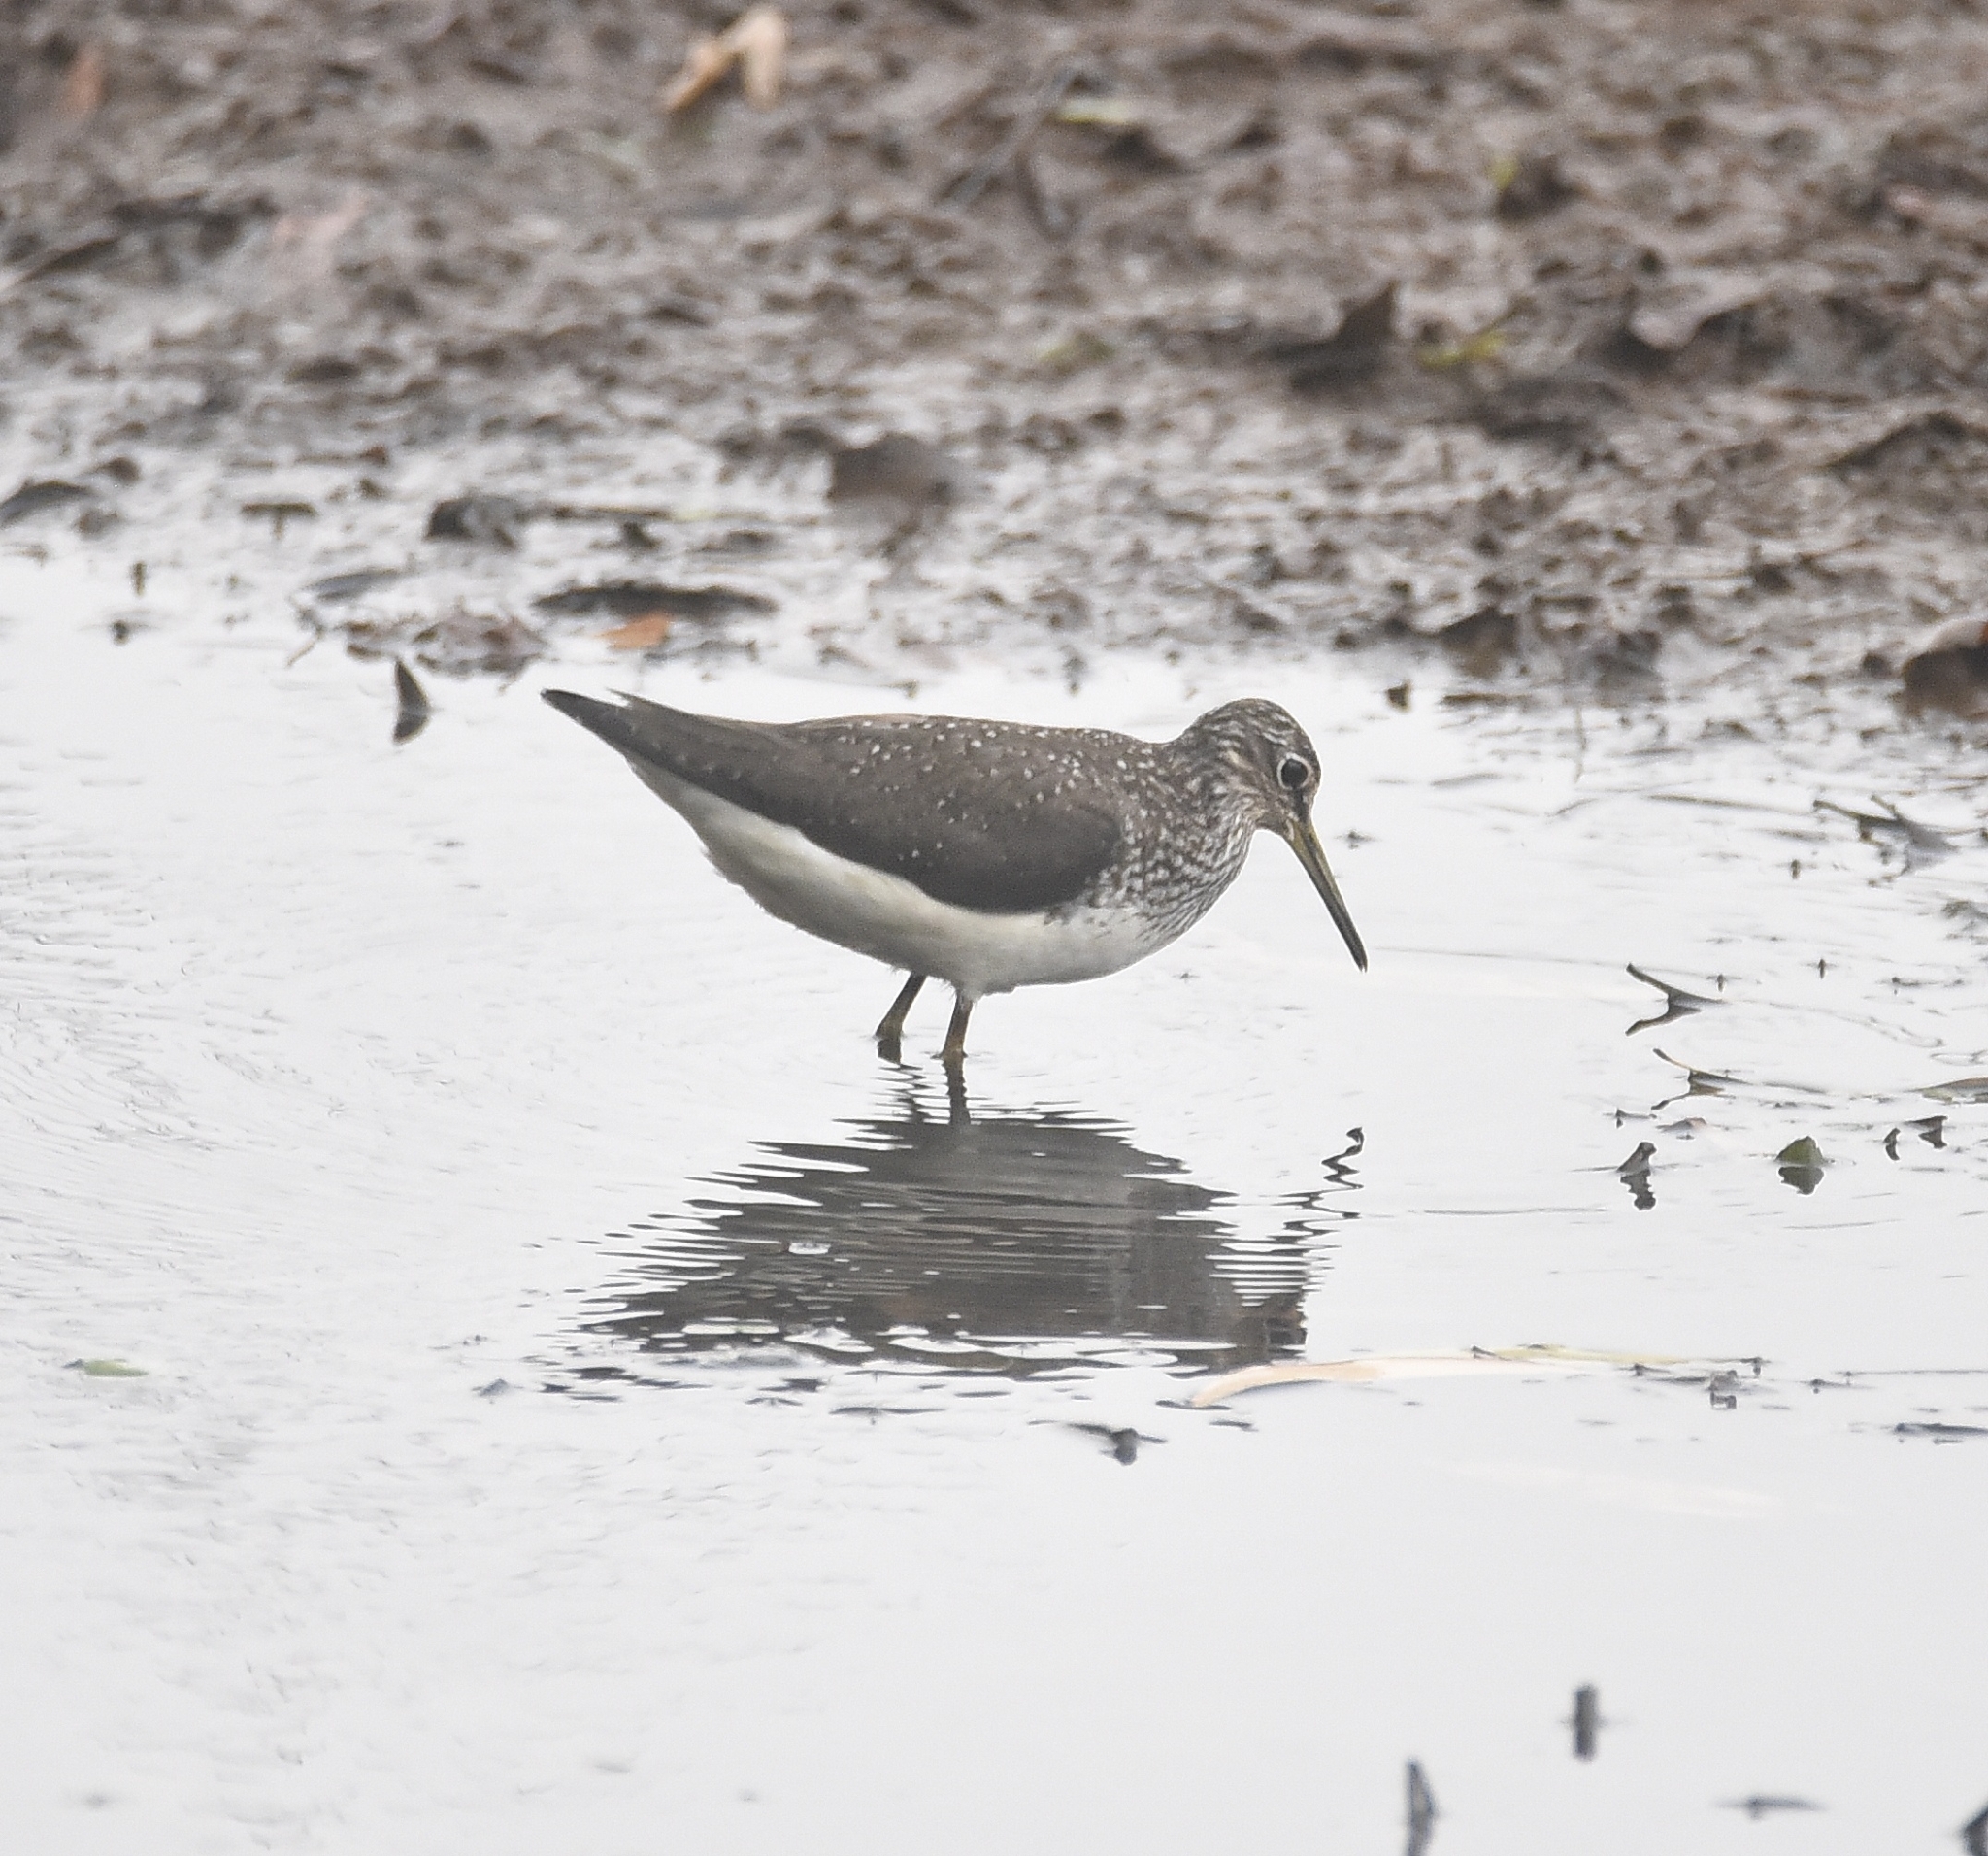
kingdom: Animalia
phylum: Chordata
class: Aves
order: Charadriiformes
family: Scolopacidae
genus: Tringa
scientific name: Tringa ochropus
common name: Green sandpiper
